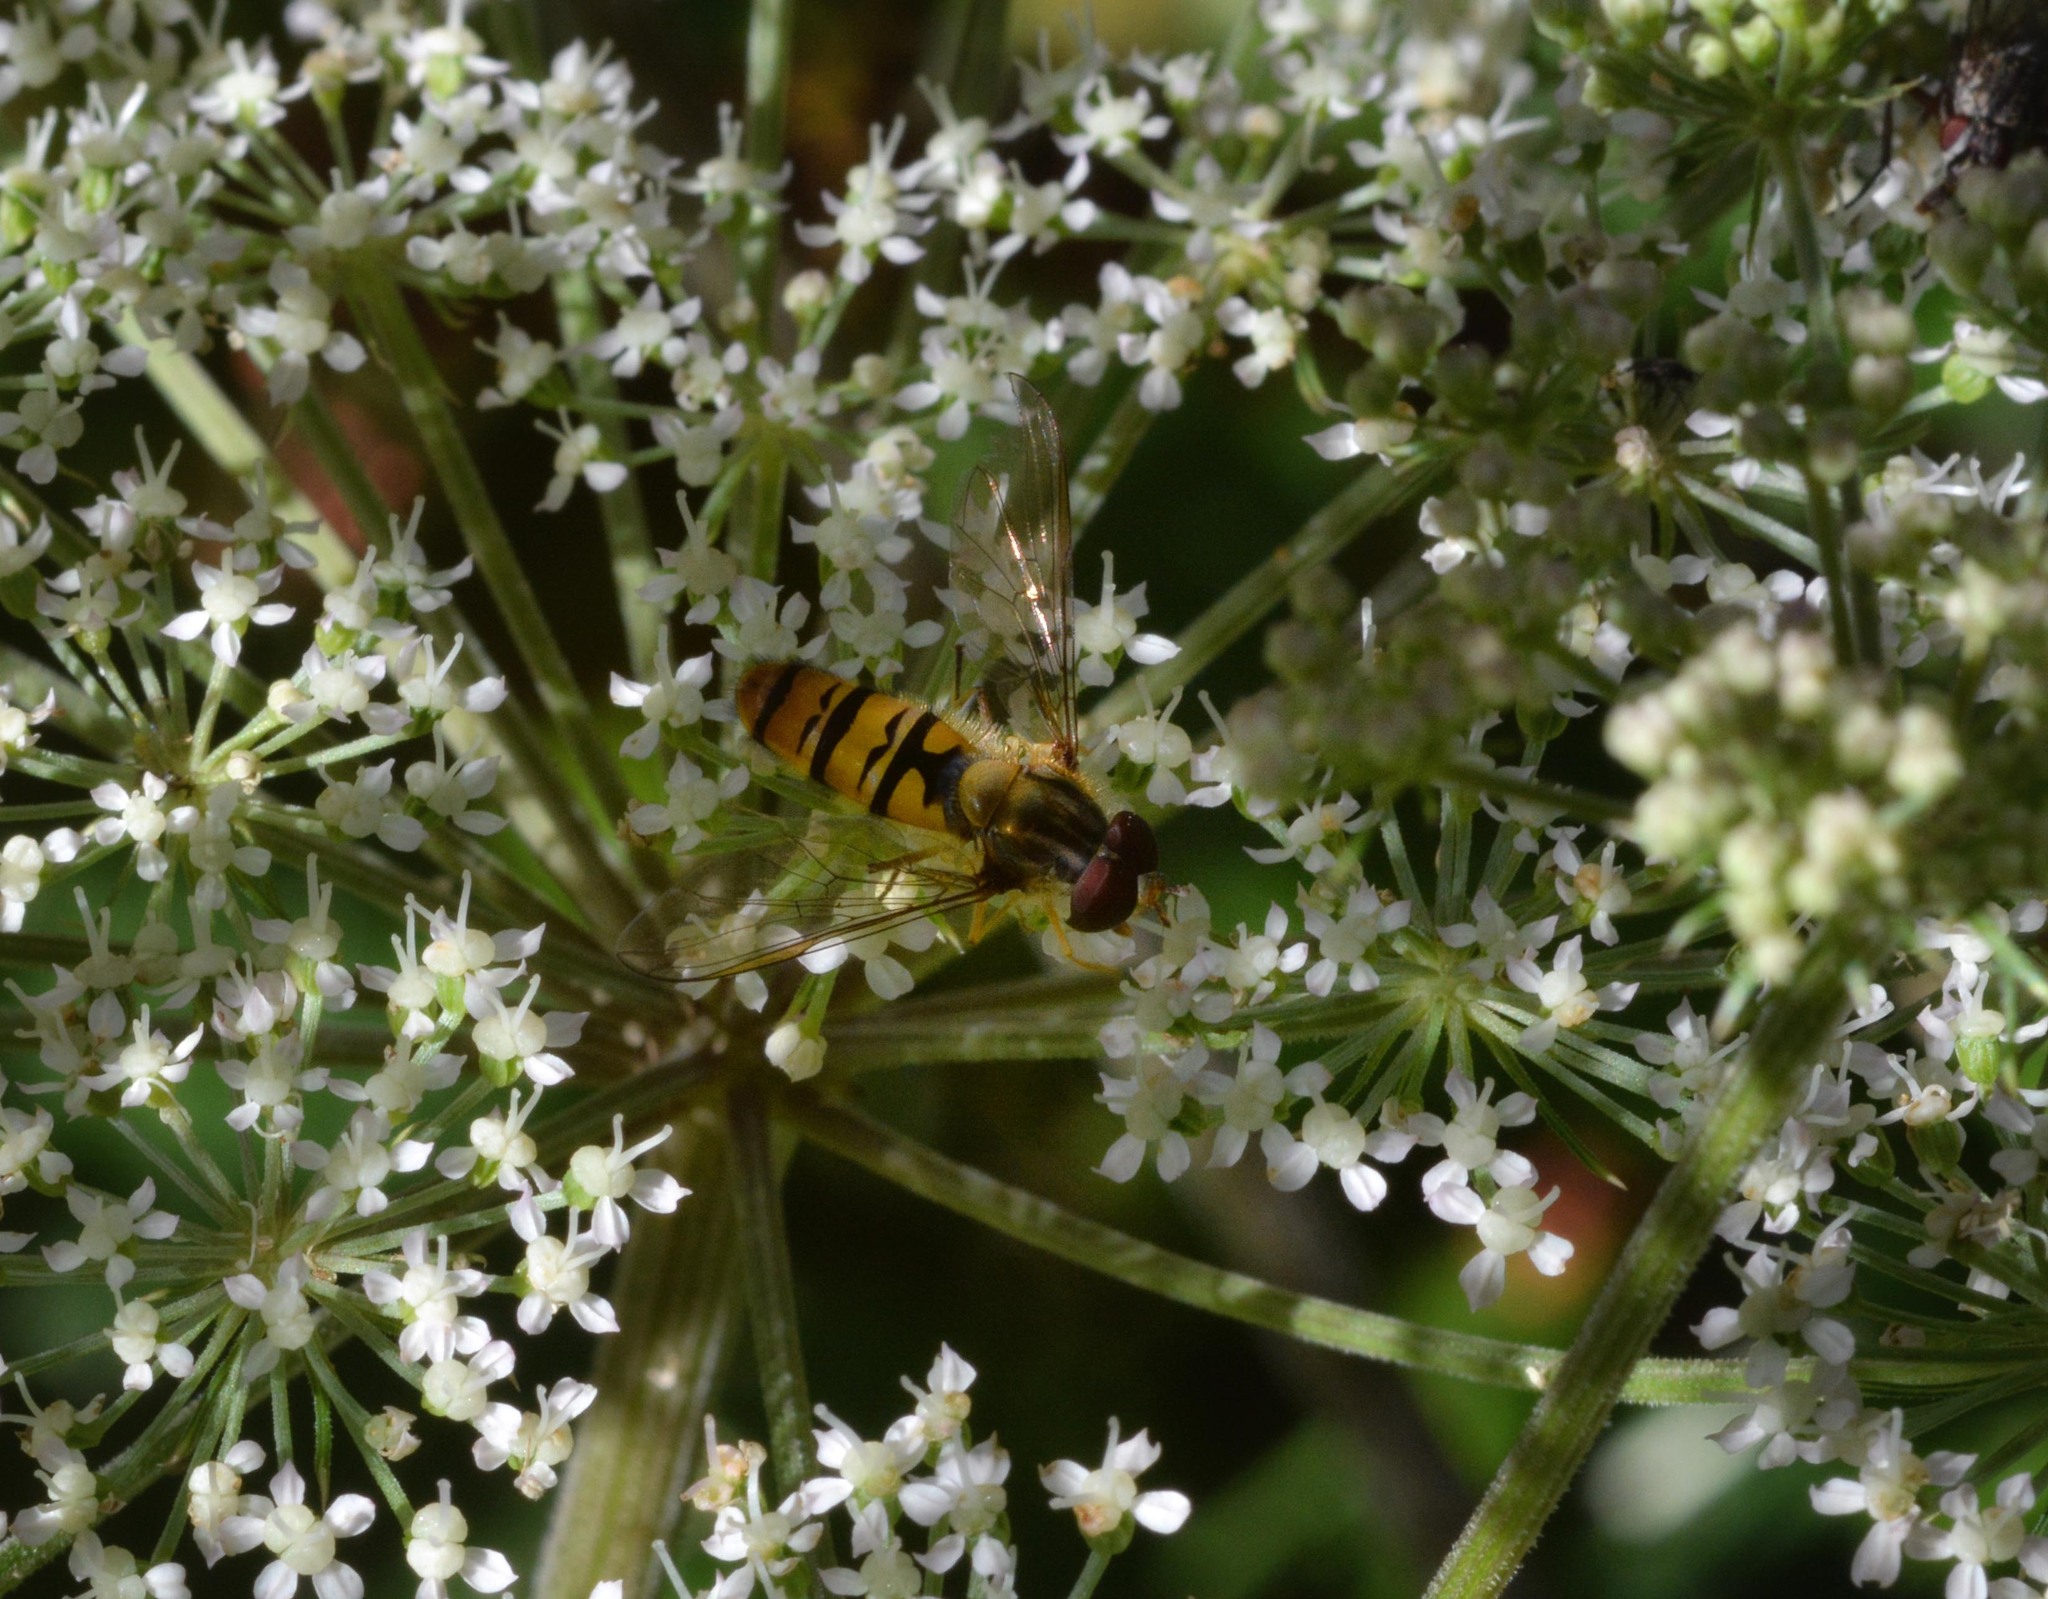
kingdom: Animalia
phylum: Arthropoda
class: Insecta
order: Diptera
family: Syrphidae
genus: Episyrphus
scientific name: Episyrphus balteatus
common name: Marmalade hoverfly
